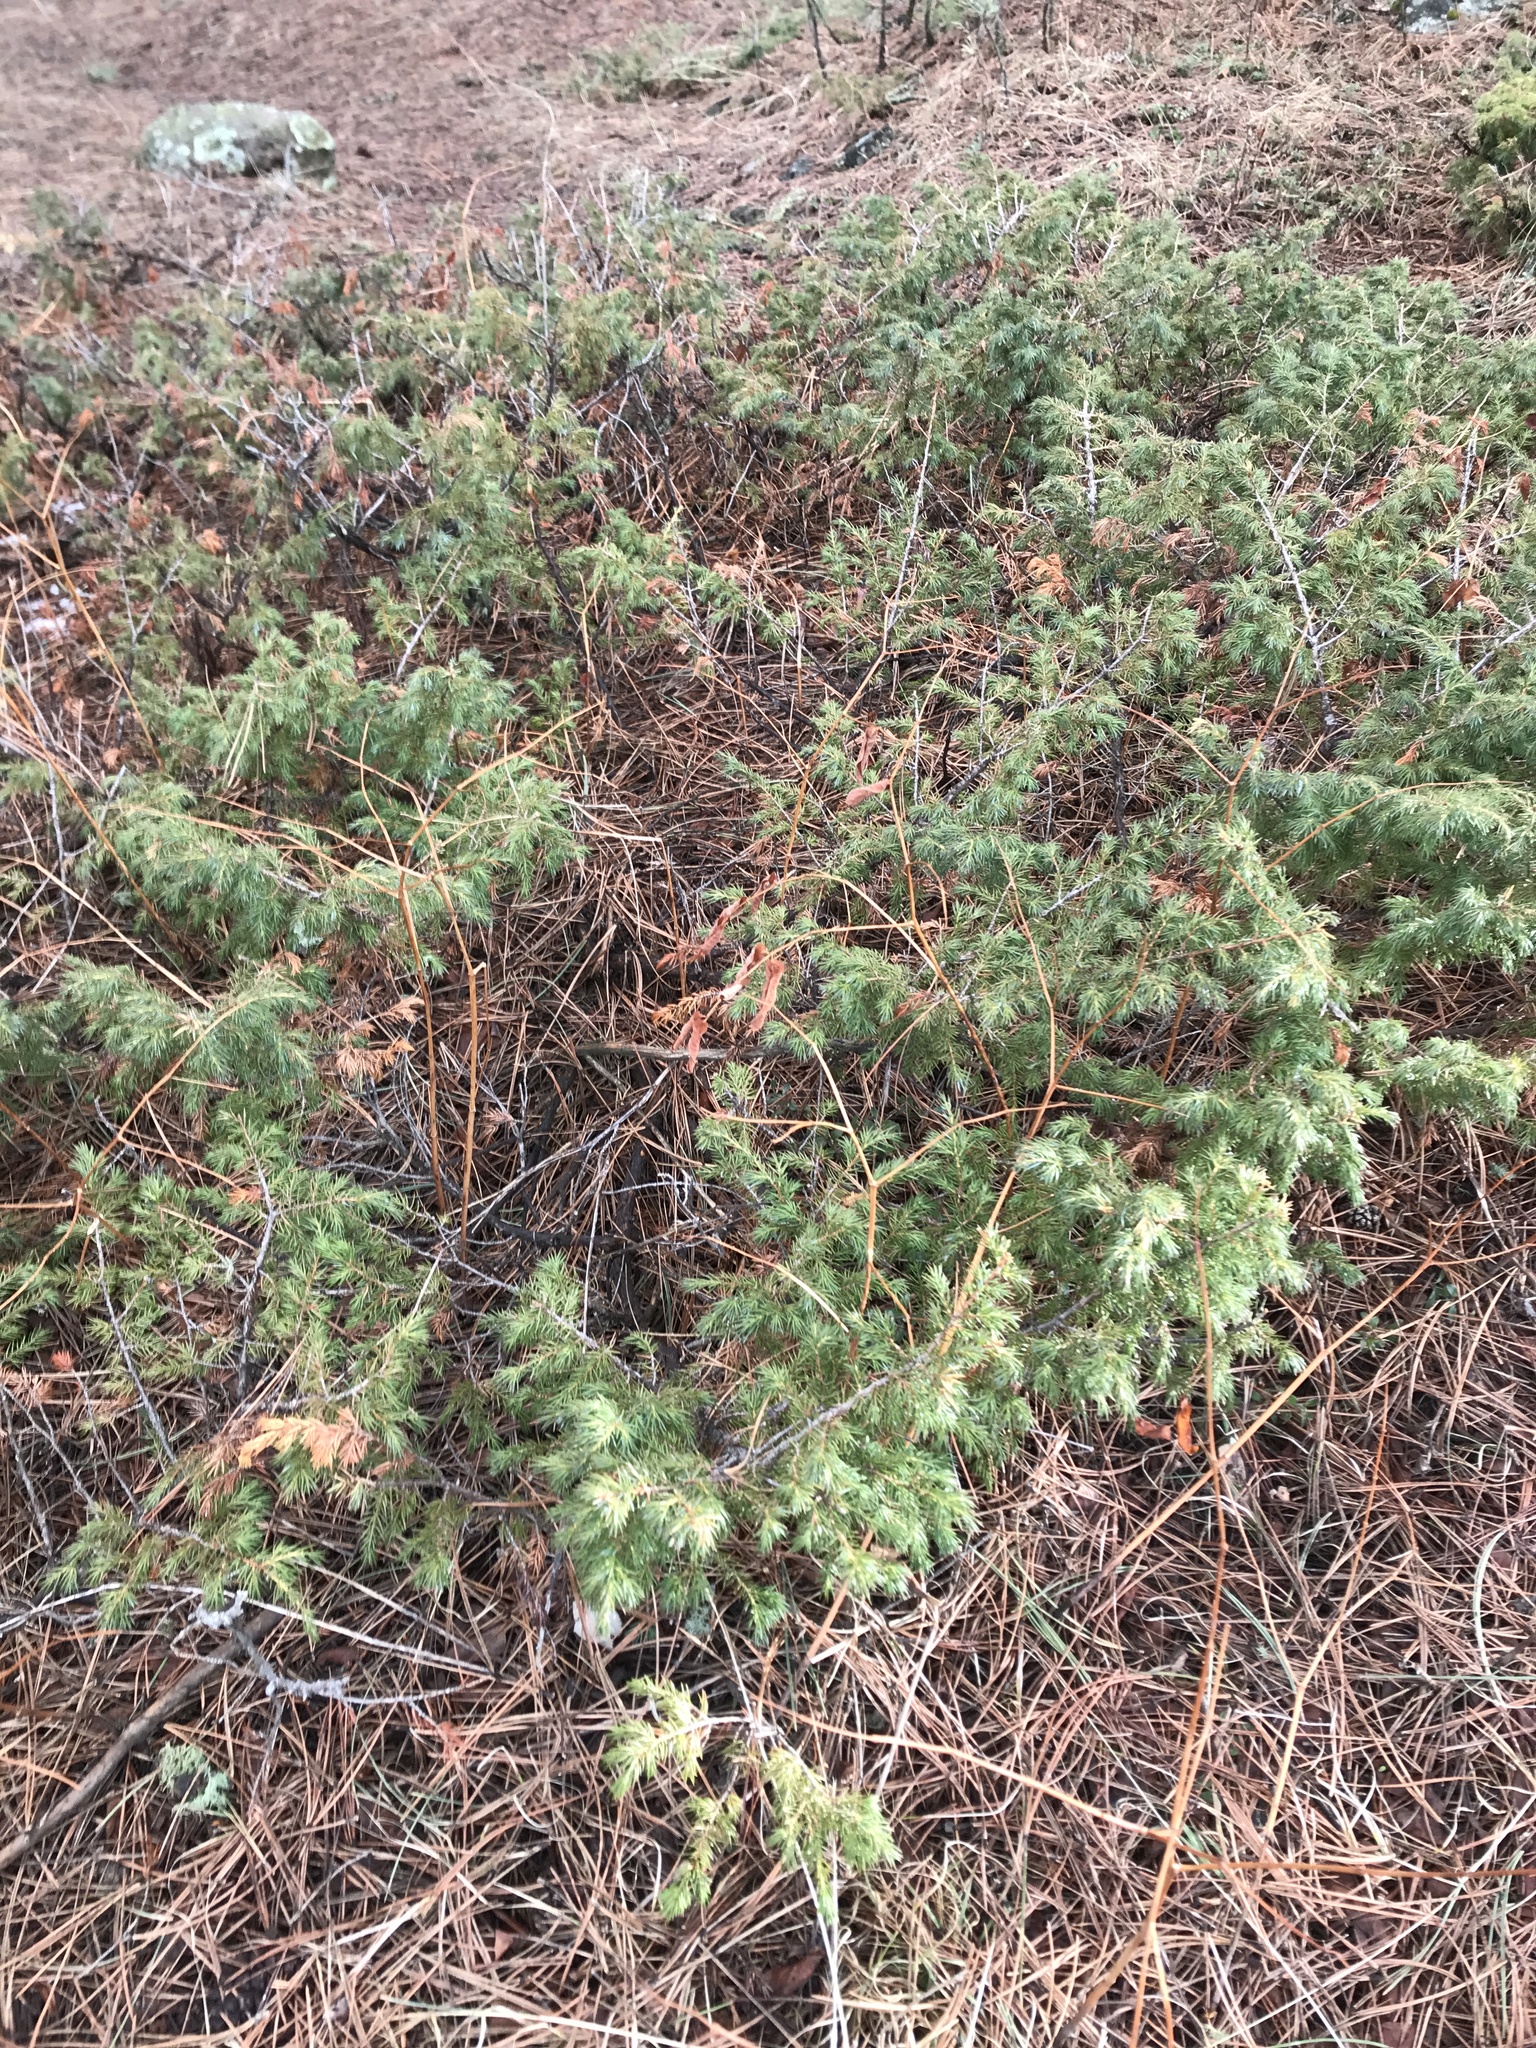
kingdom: Plantae
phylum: Tracheophyta
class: Pinopsida
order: Pinales
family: Cupressaceae
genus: Juniperus
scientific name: Juniperus communis
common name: Common juniper
